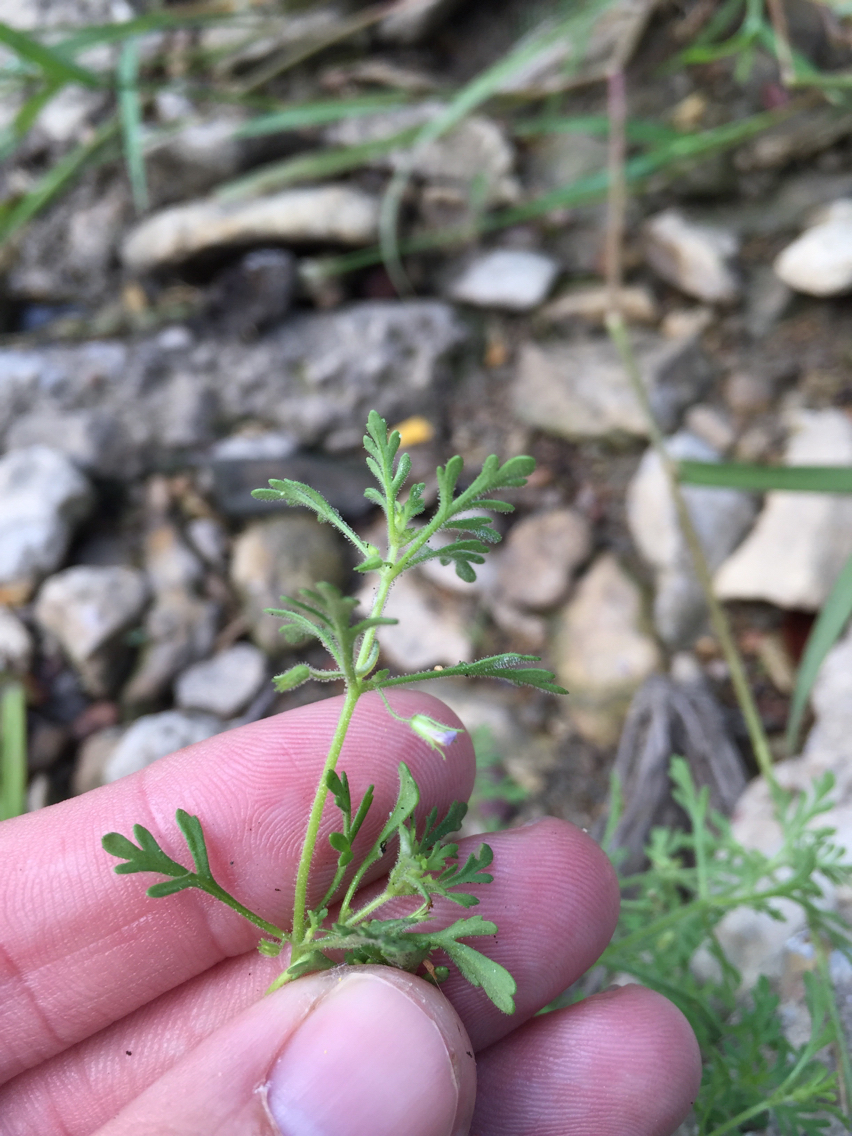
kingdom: Plantae
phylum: Tracheophyta
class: Magnoliopsida
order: Lamiales
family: Plantaginaceae
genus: Leucospora
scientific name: Leucospora multifida
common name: Narrow-leaf paleseed
